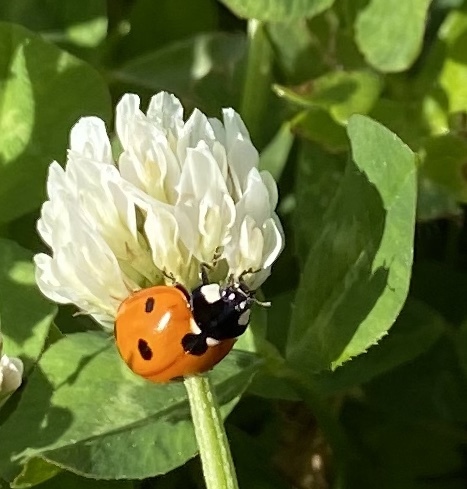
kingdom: Animalia
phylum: Arthropoda
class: Insecta
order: Coleoptera
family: Coccinellidae
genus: Coccinella
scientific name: Coccinella septempunctata
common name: Sevenspotted lady beetle
